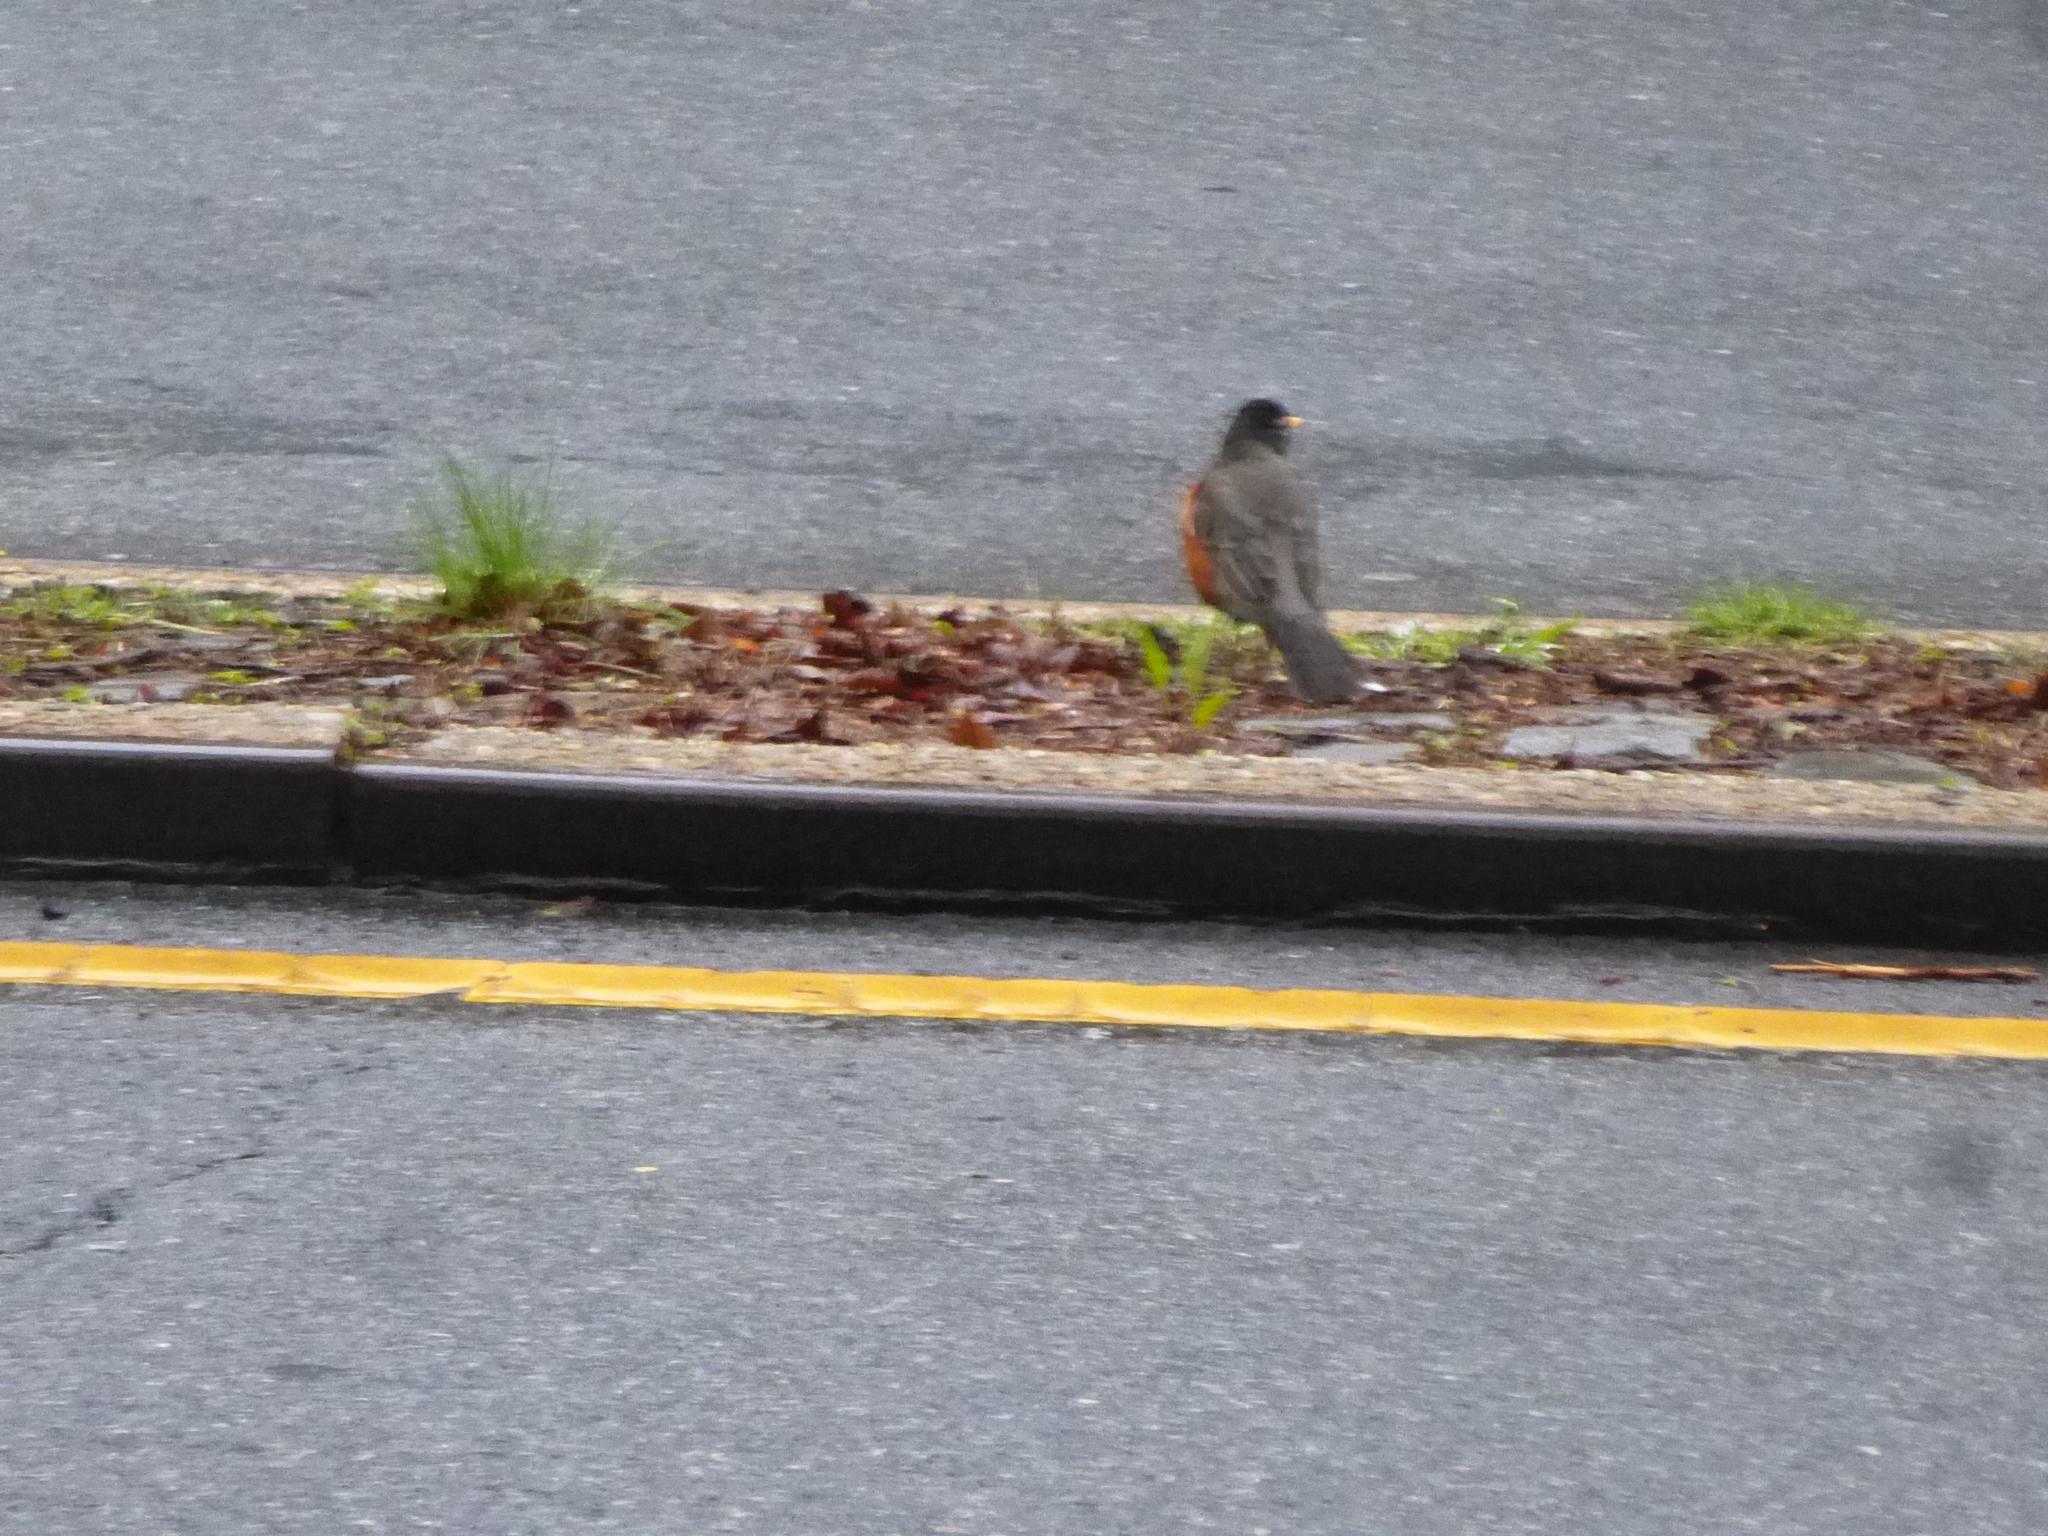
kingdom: Animalia
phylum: Chordata
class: Aves
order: Passeriformes
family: Turdidae
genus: Turdus
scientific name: Turdus migratorius
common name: American robin
